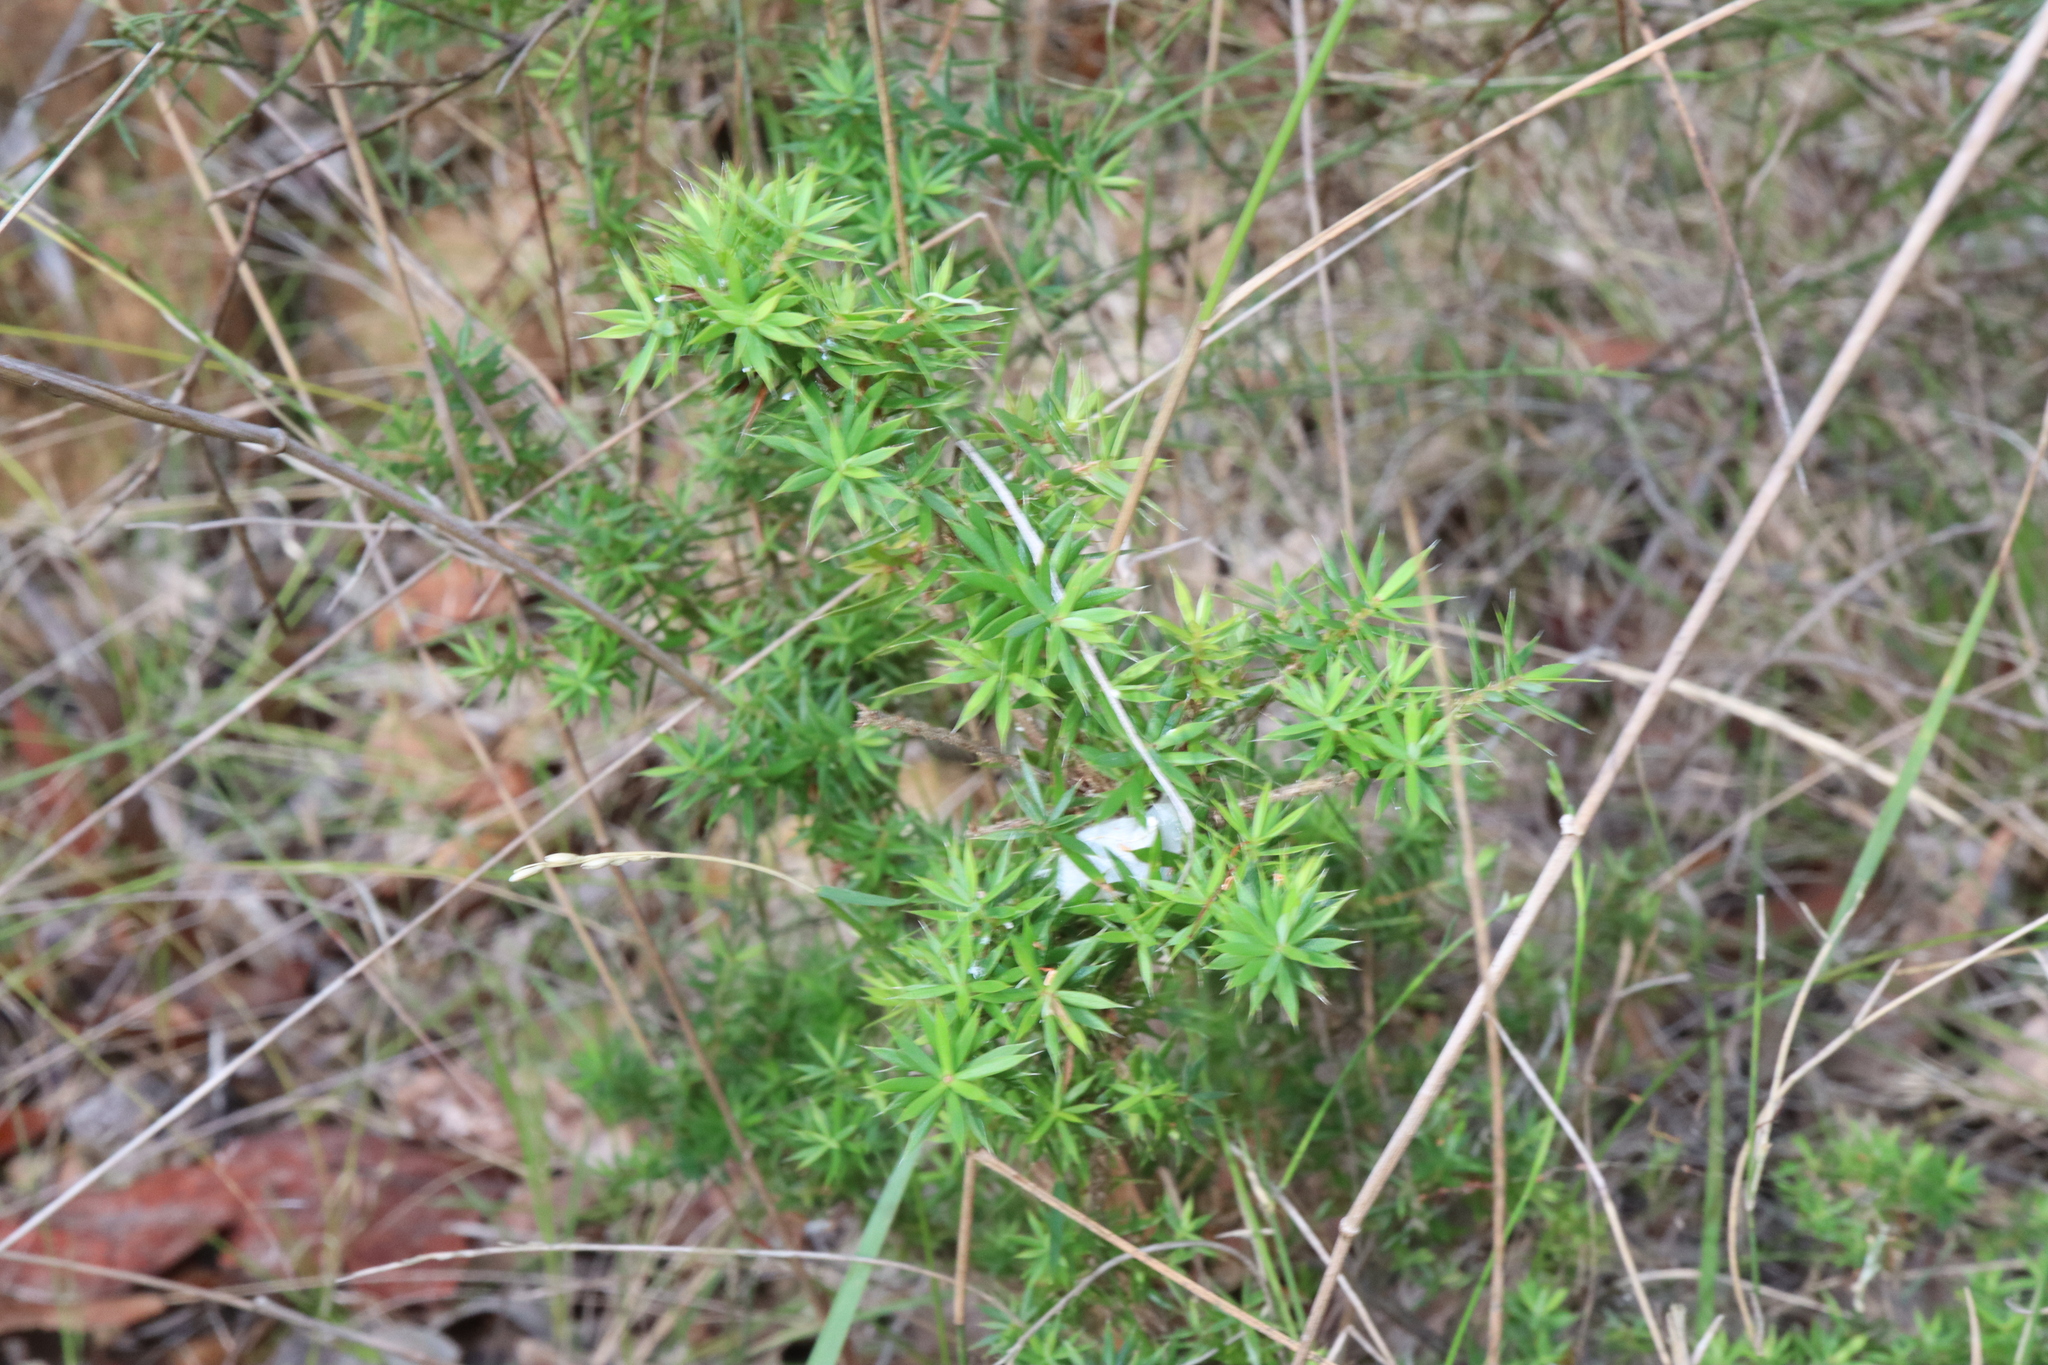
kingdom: Plantae
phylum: Tracheophyta
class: Magnoliopsida
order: Ericales
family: Ericaceae
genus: Styphelia
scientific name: Styphelia sieberi
